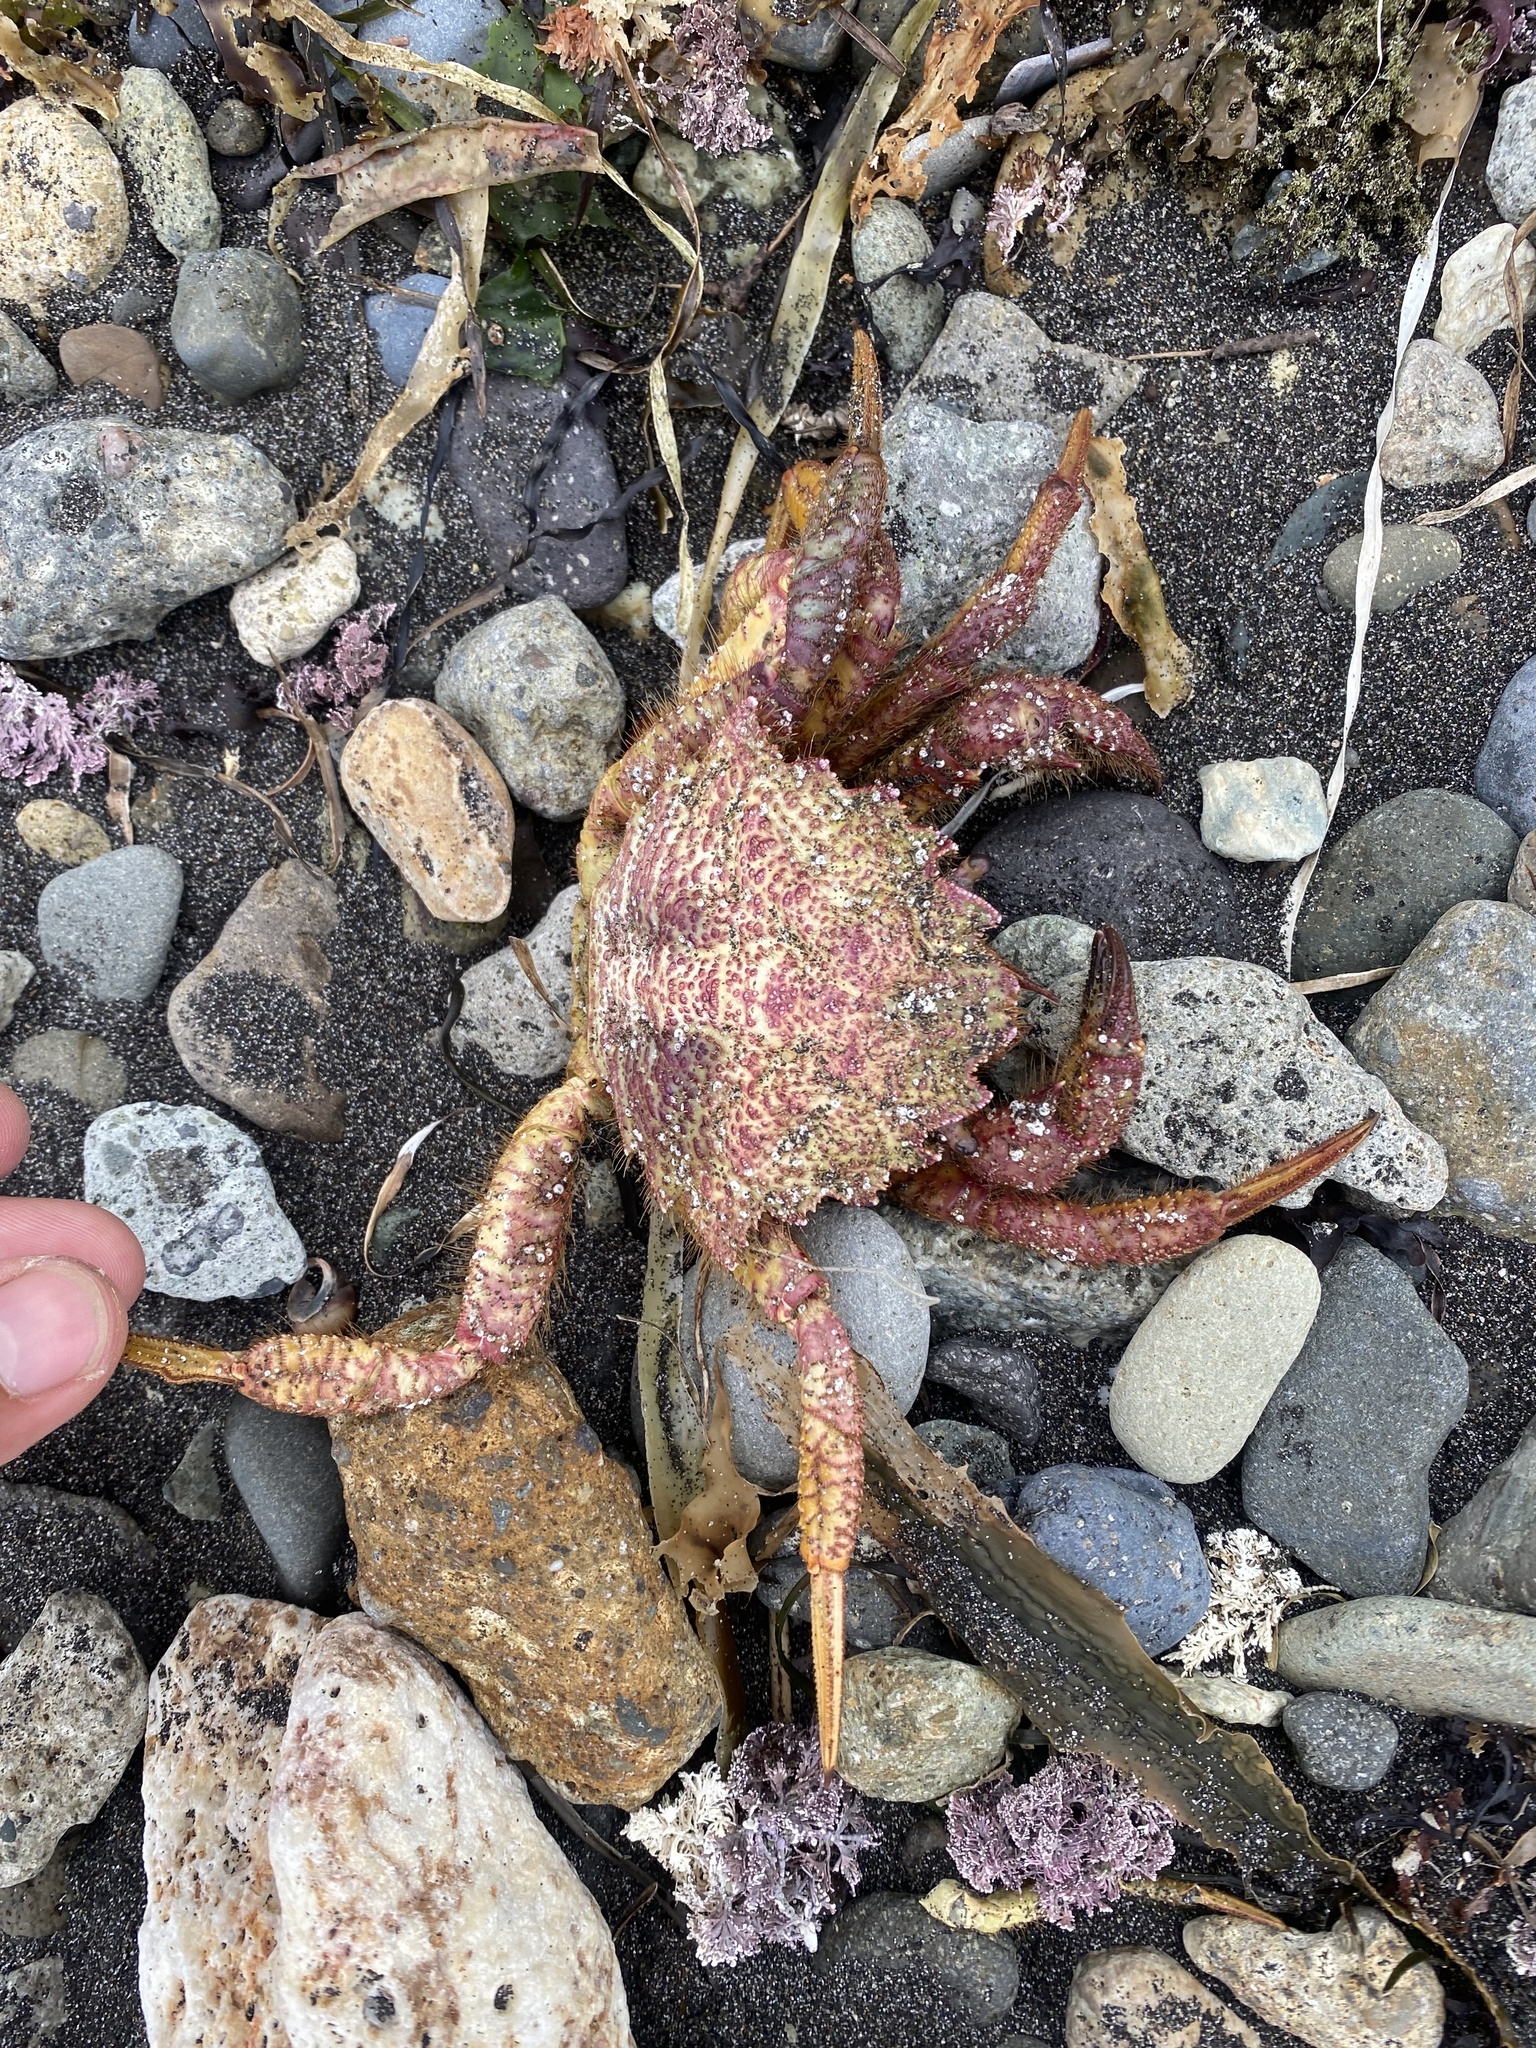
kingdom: Animalia
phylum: Arthropoda
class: Malacostraca
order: Decapoda
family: Cheiragonidae
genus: Telmessus
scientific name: Telmessus cheiragonus
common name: Helmet crab
